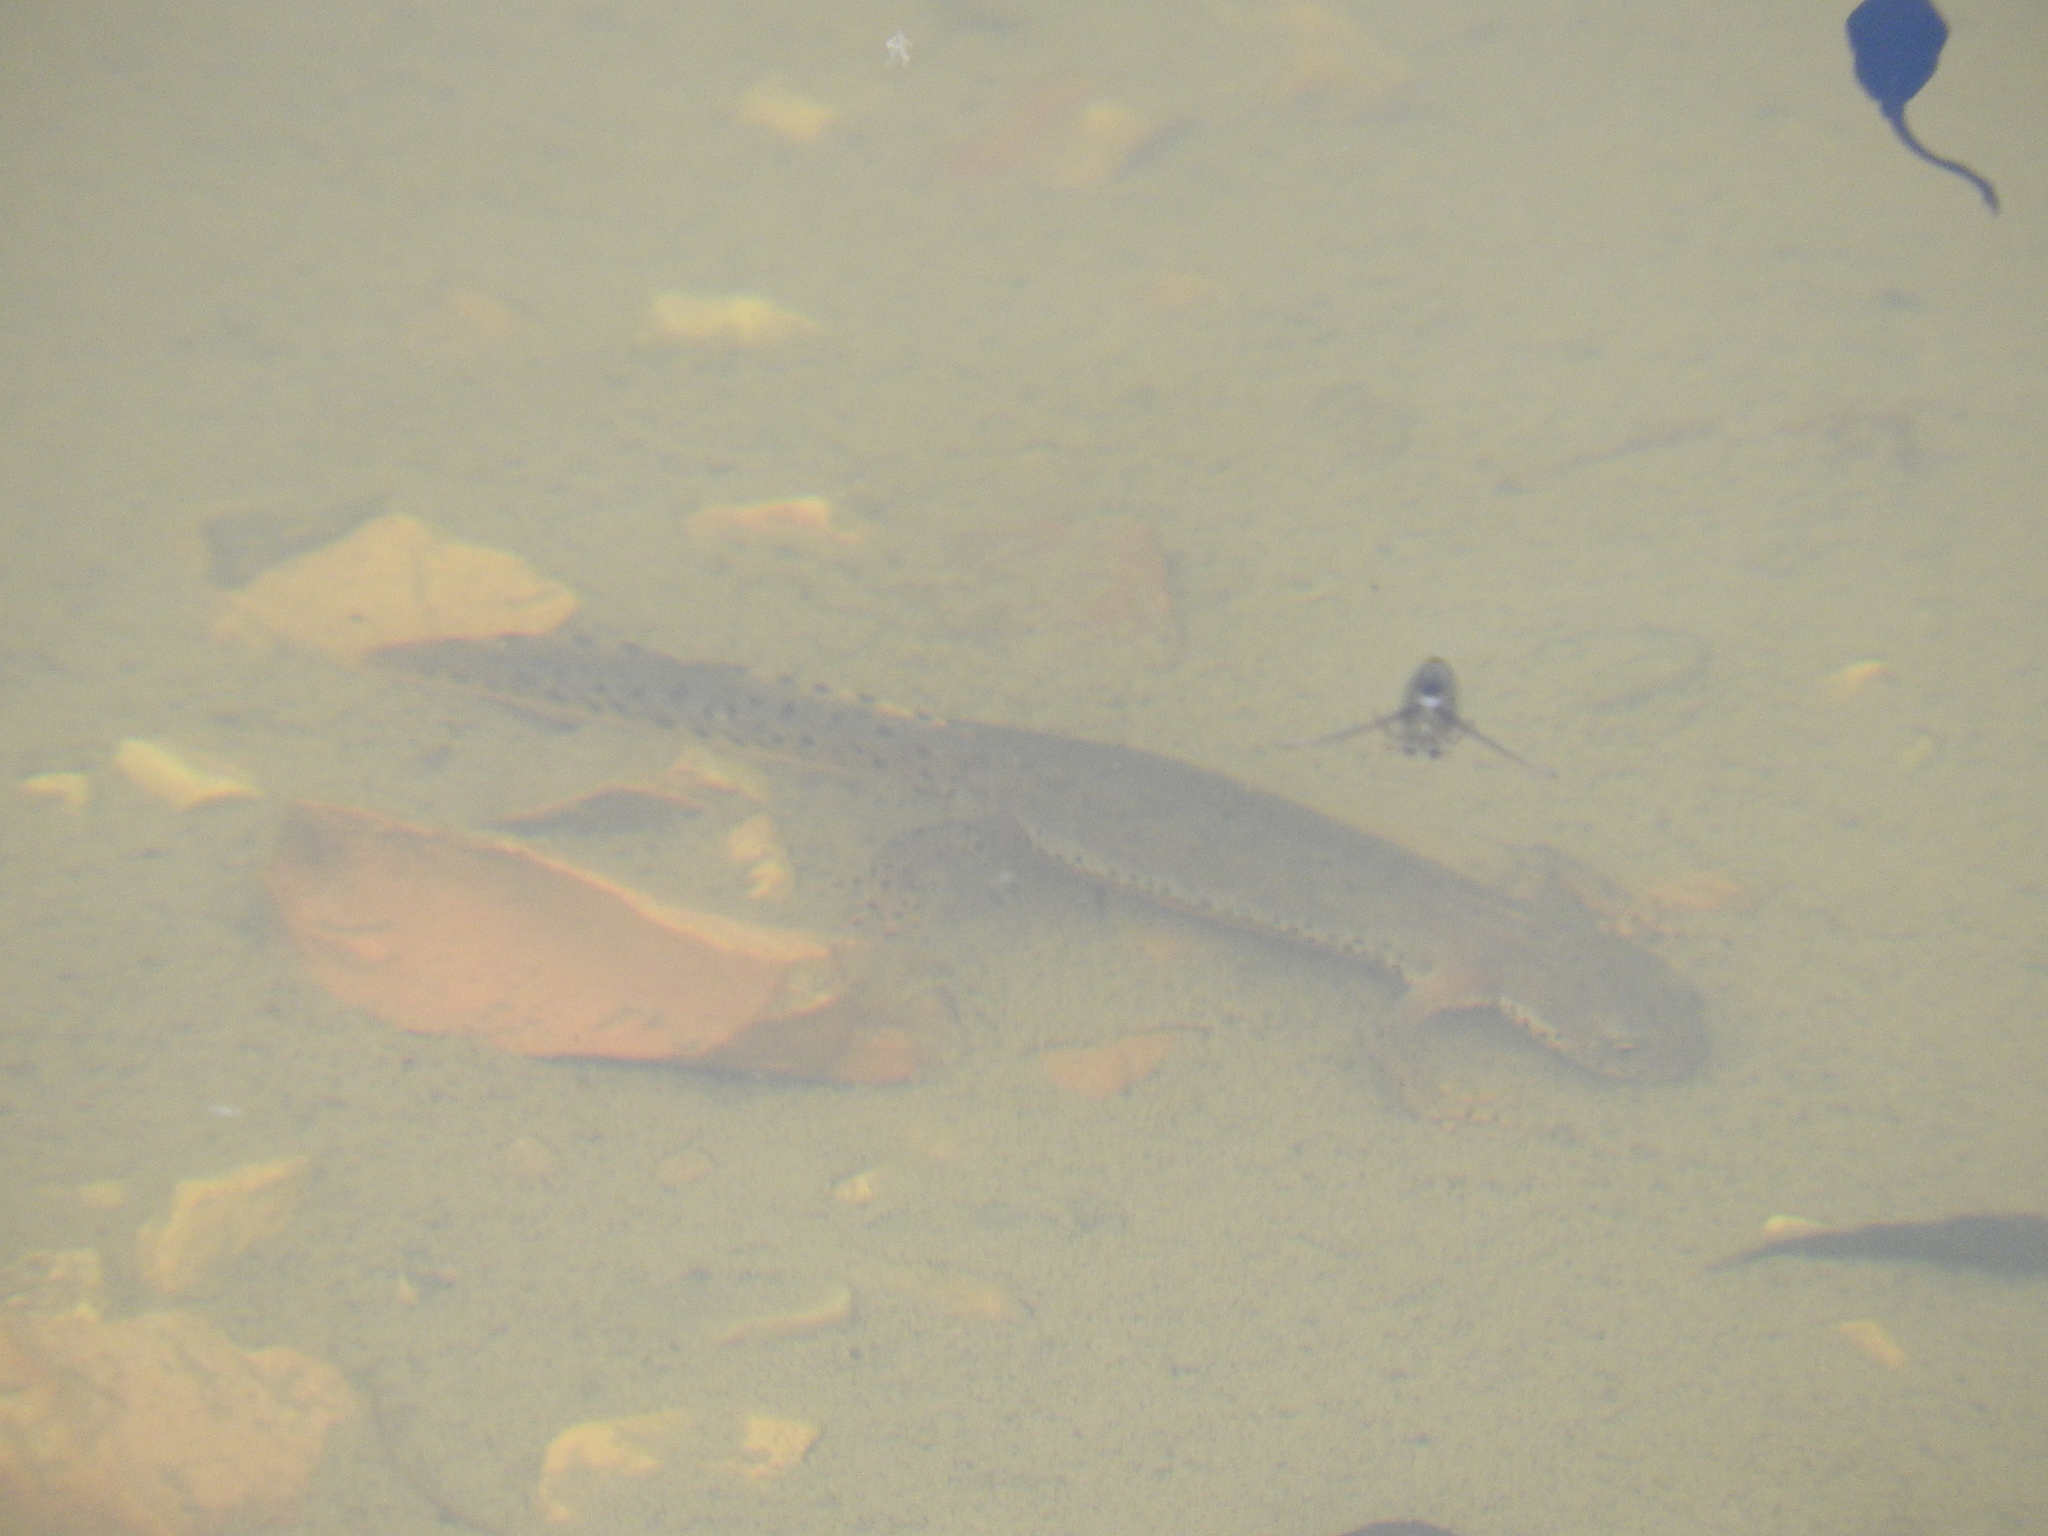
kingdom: Animalia
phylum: Chordata
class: Amphibia
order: Caudata
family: Salamandridae
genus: Ichthyosaura
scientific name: Ichthyosaura alpestris
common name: Alpine newt
